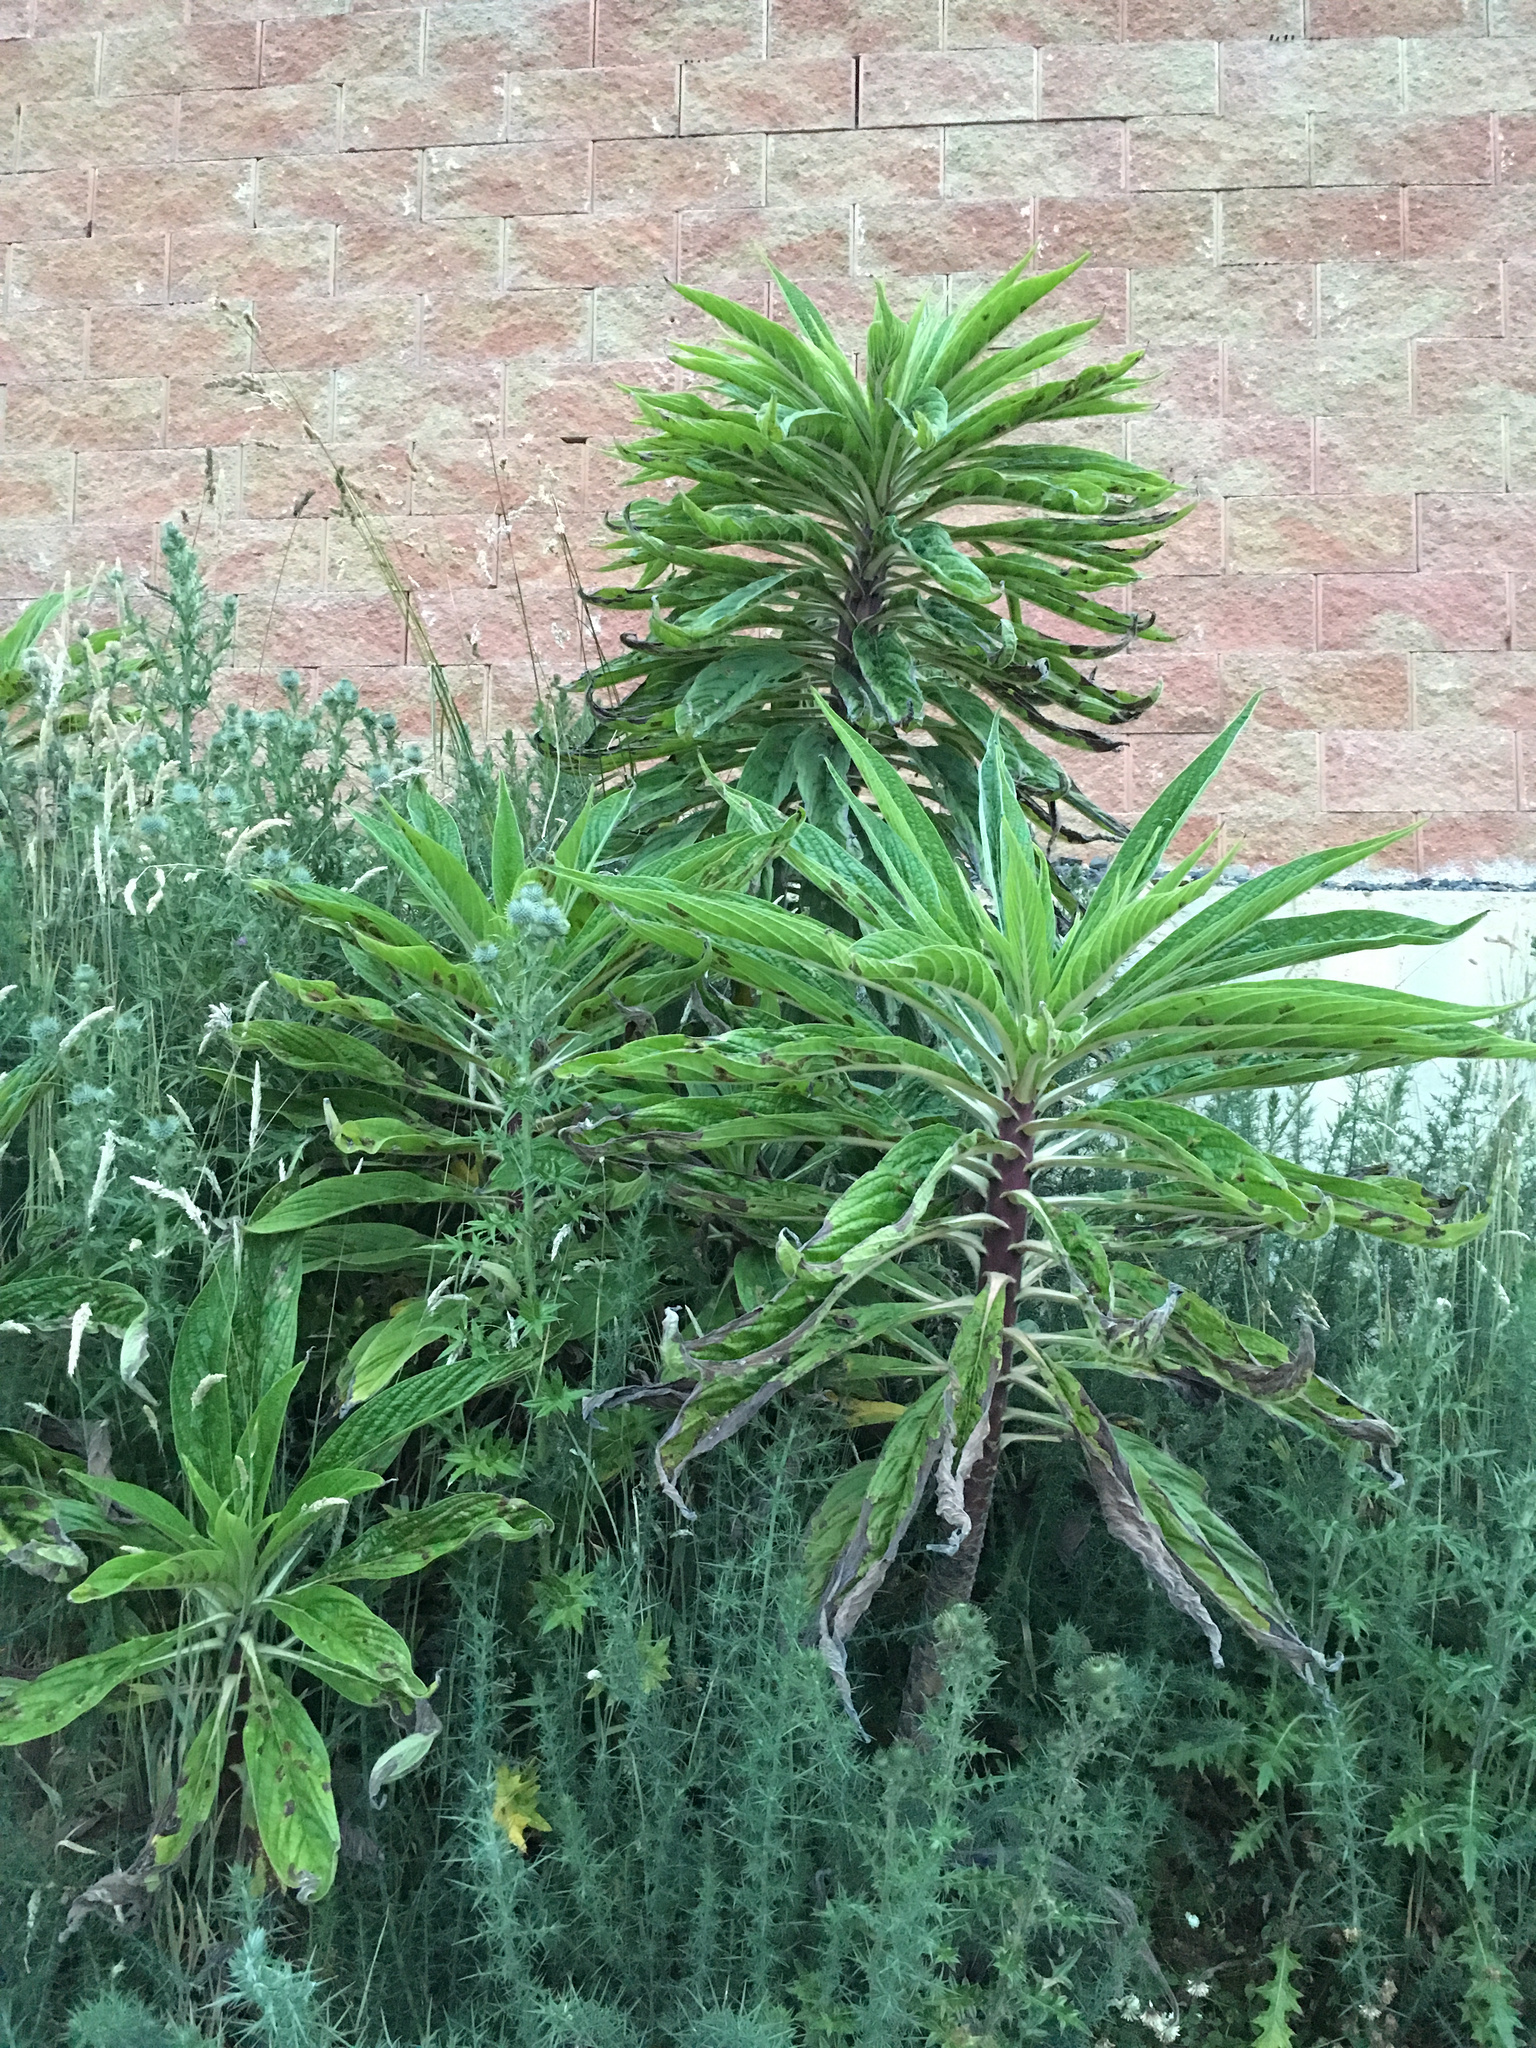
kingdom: Plantae
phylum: Tracheophyta
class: Magnoliopsida
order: Boraginales
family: Boraginaceae
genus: Echium
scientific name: Echium pininana
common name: Giant viper's-bugloss
